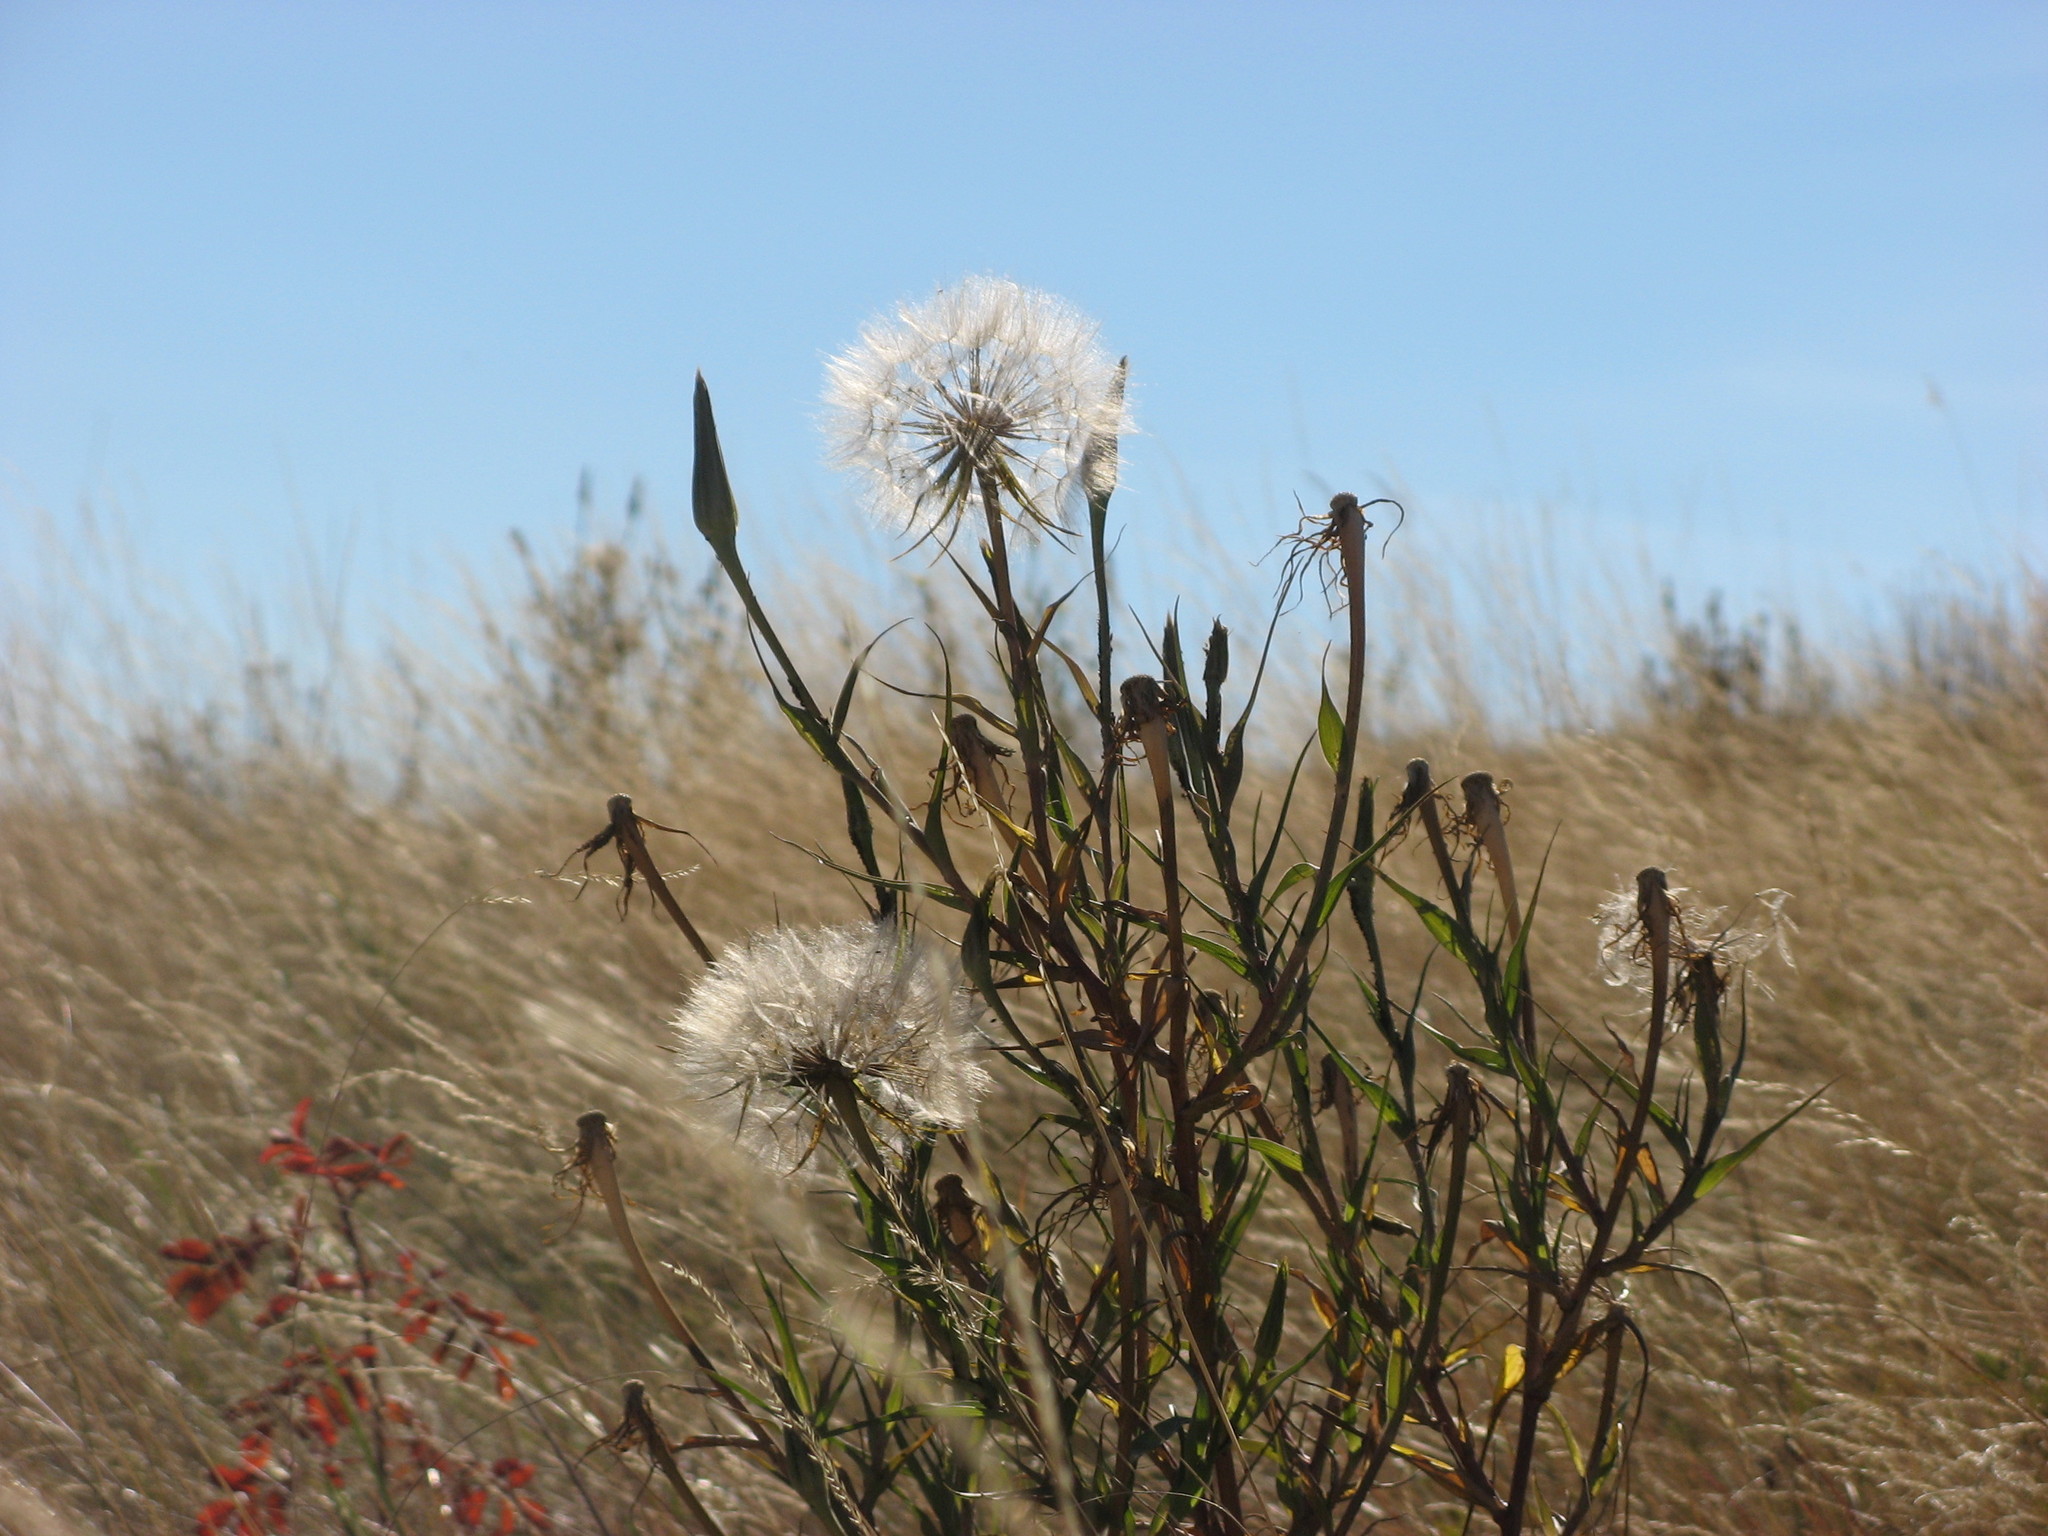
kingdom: Plantae
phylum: Tracheophyta
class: Magnoliopsida
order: Asterales
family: Asteraceae
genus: Tragopogon
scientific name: Tragopogon dubius
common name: Yellow salsify
